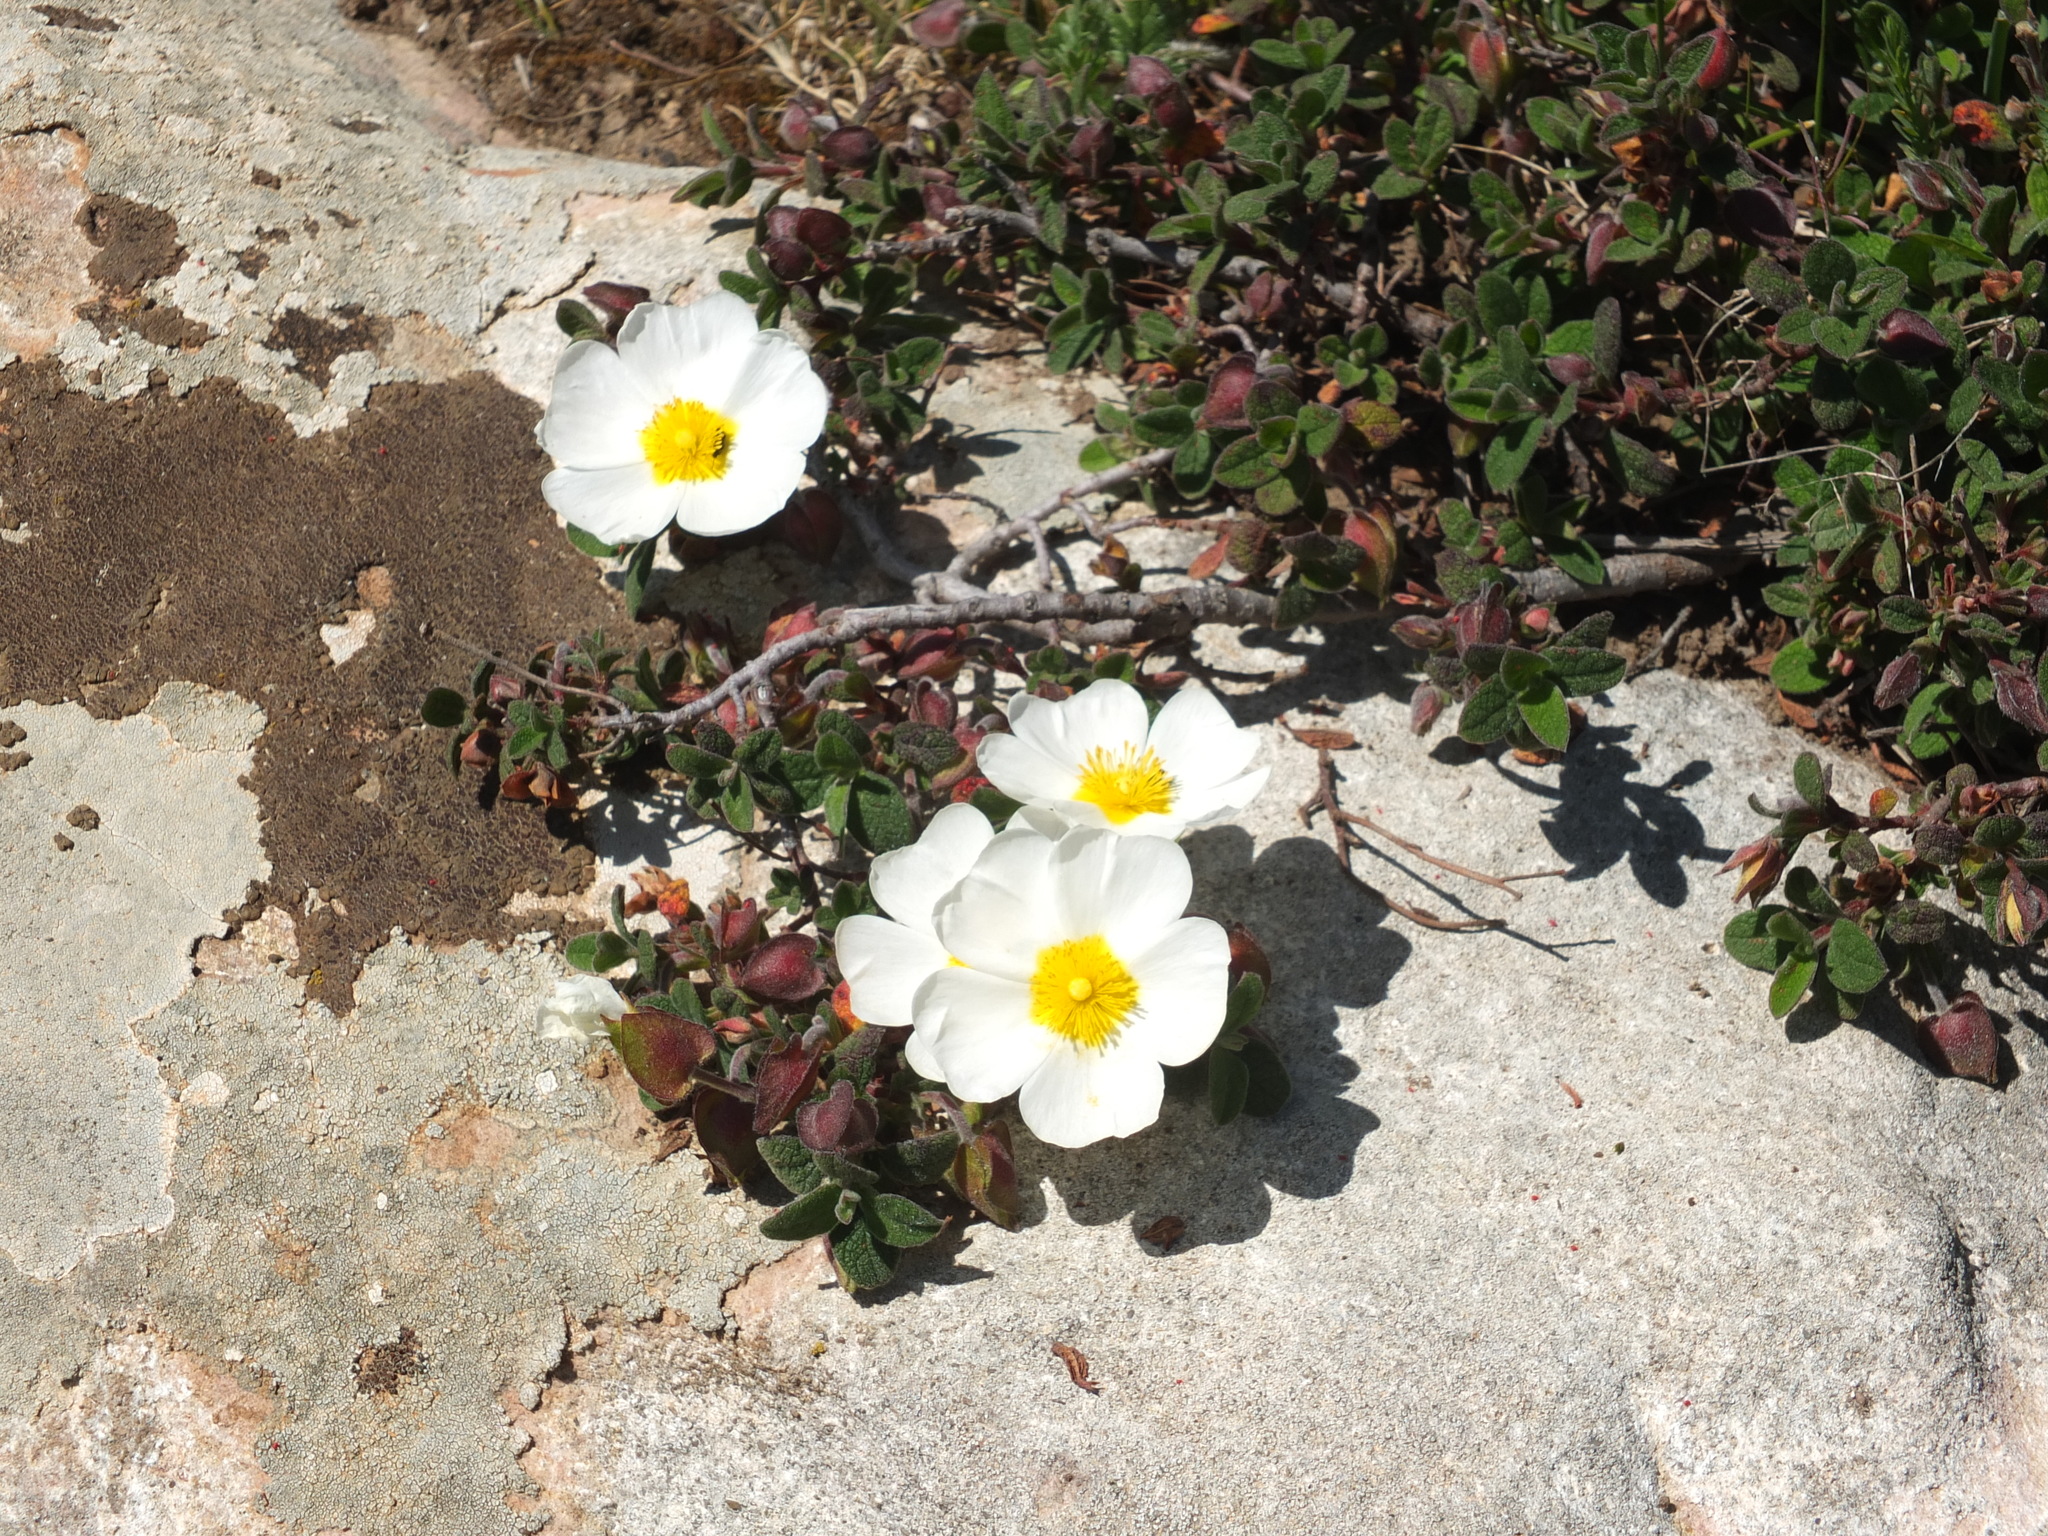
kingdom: Plantae
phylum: Tracheophyta
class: Magnoliopsida
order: Malvales
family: Cistaceae
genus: Cistus
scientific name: Cistus salviifolius
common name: Salvia cistus
